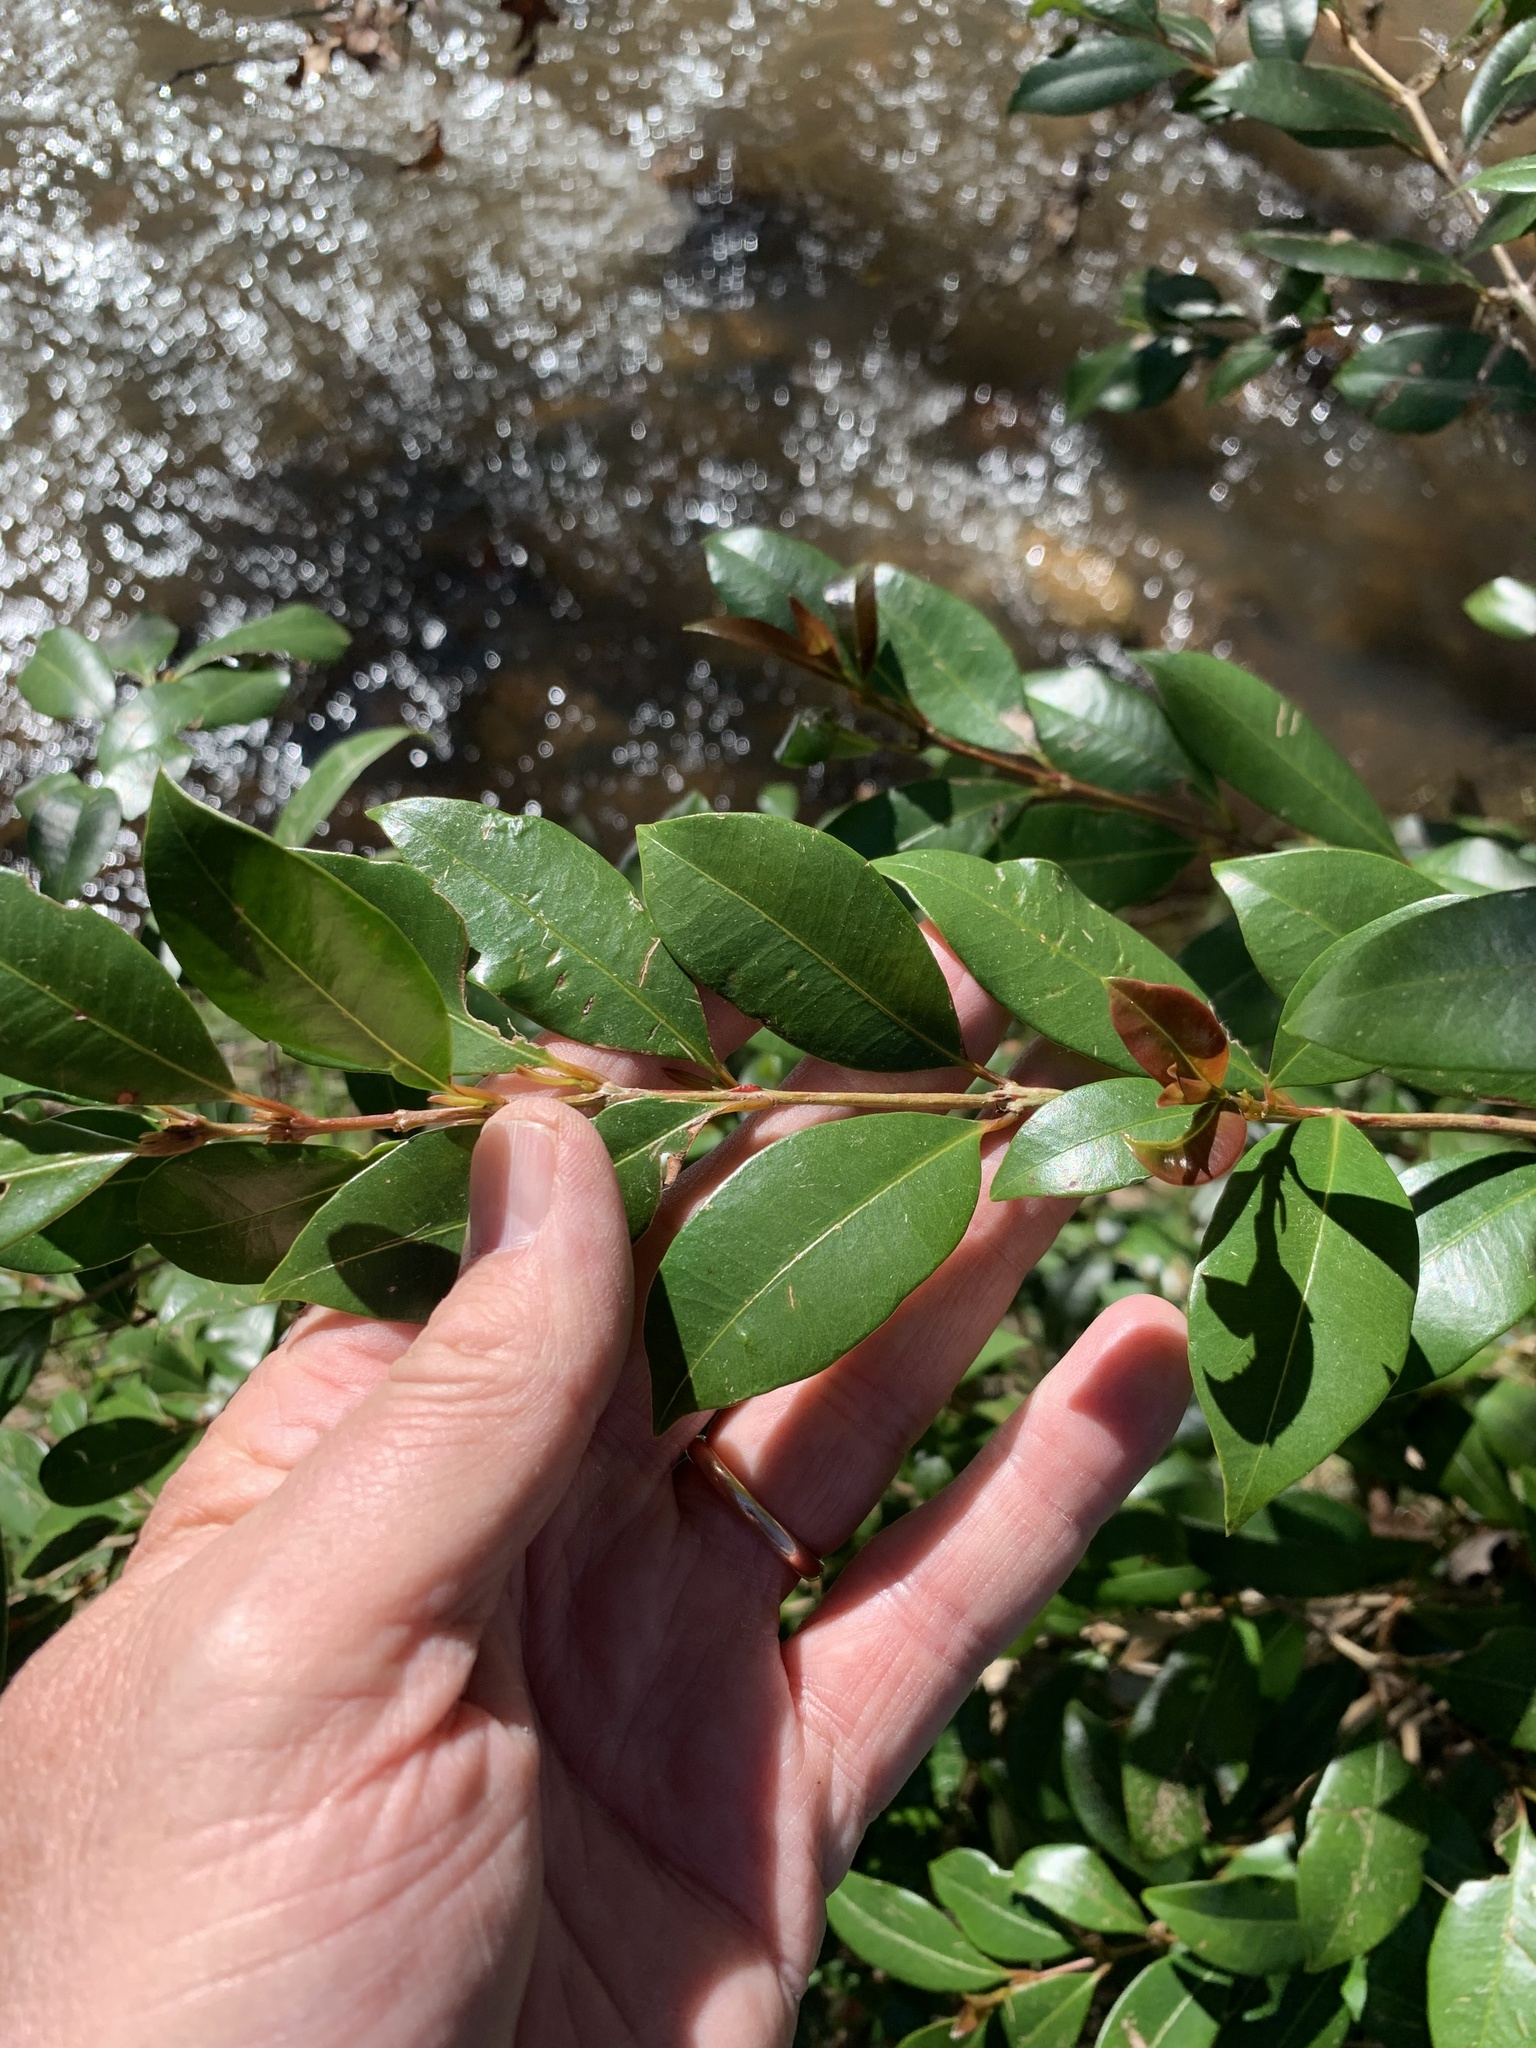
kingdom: Plantae
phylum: Tracheophyta
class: Magnoliopsida
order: Myrtales
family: Myrtaceae
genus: Syzygium
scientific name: Syzygium australe
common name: Australian brush-cherry
